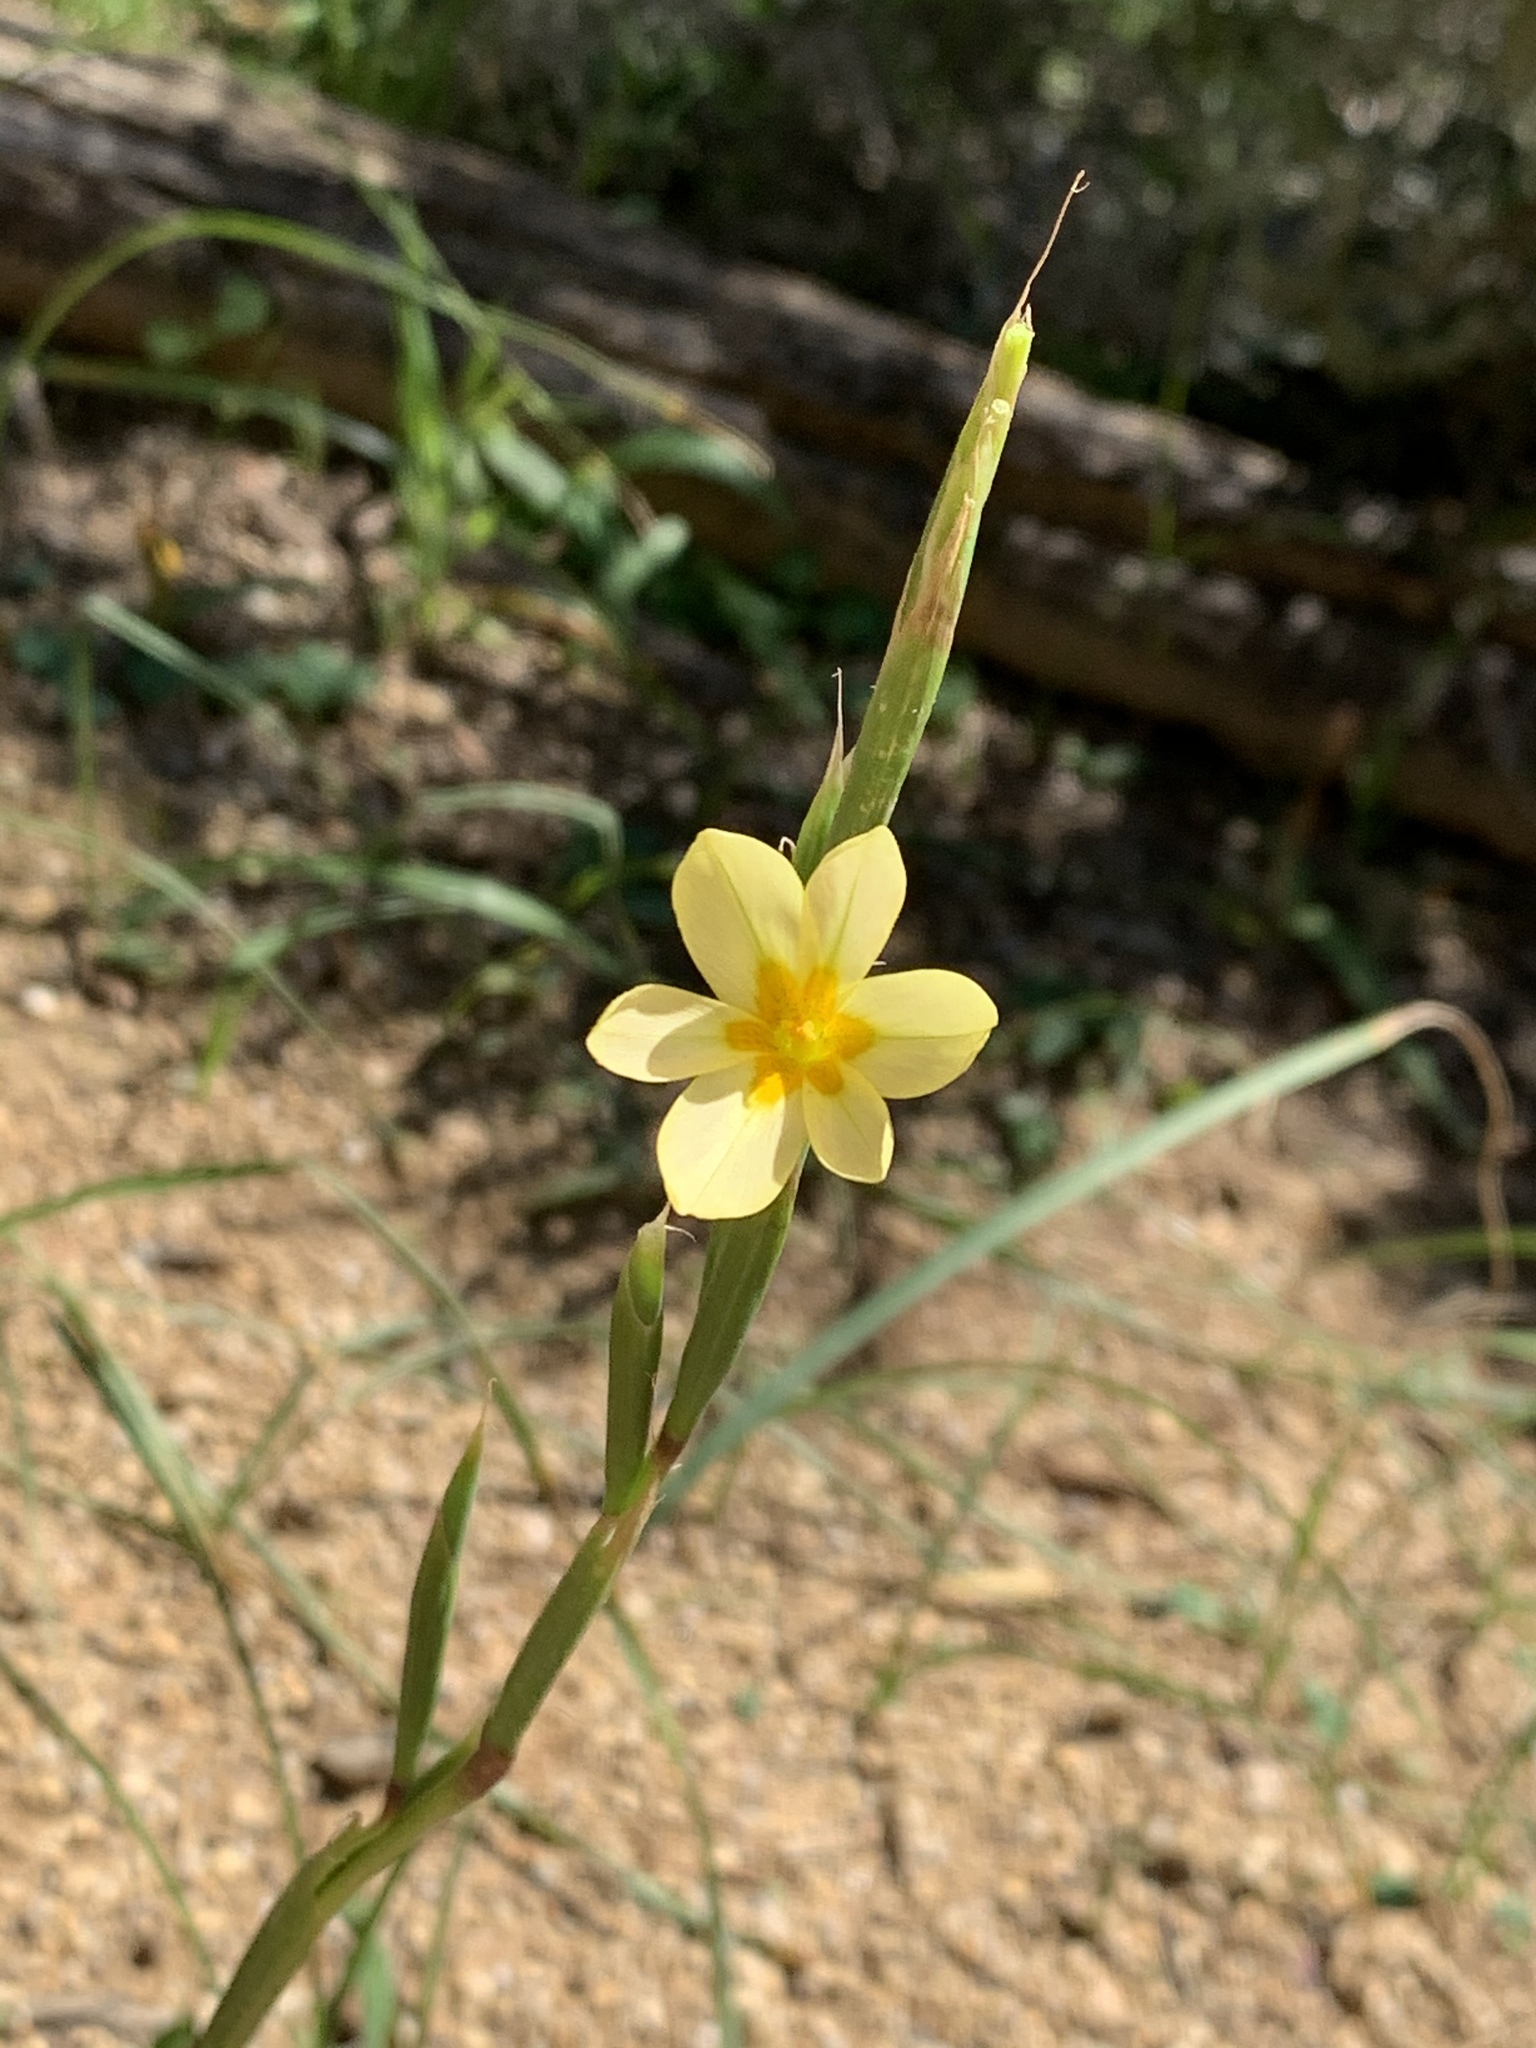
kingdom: Plantae
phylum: Tracheophyta
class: Liliopsida
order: Asparagales
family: Iridaceae
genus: Moraea
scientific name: Moraea miniata
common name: Two-leaf cape-tulip
